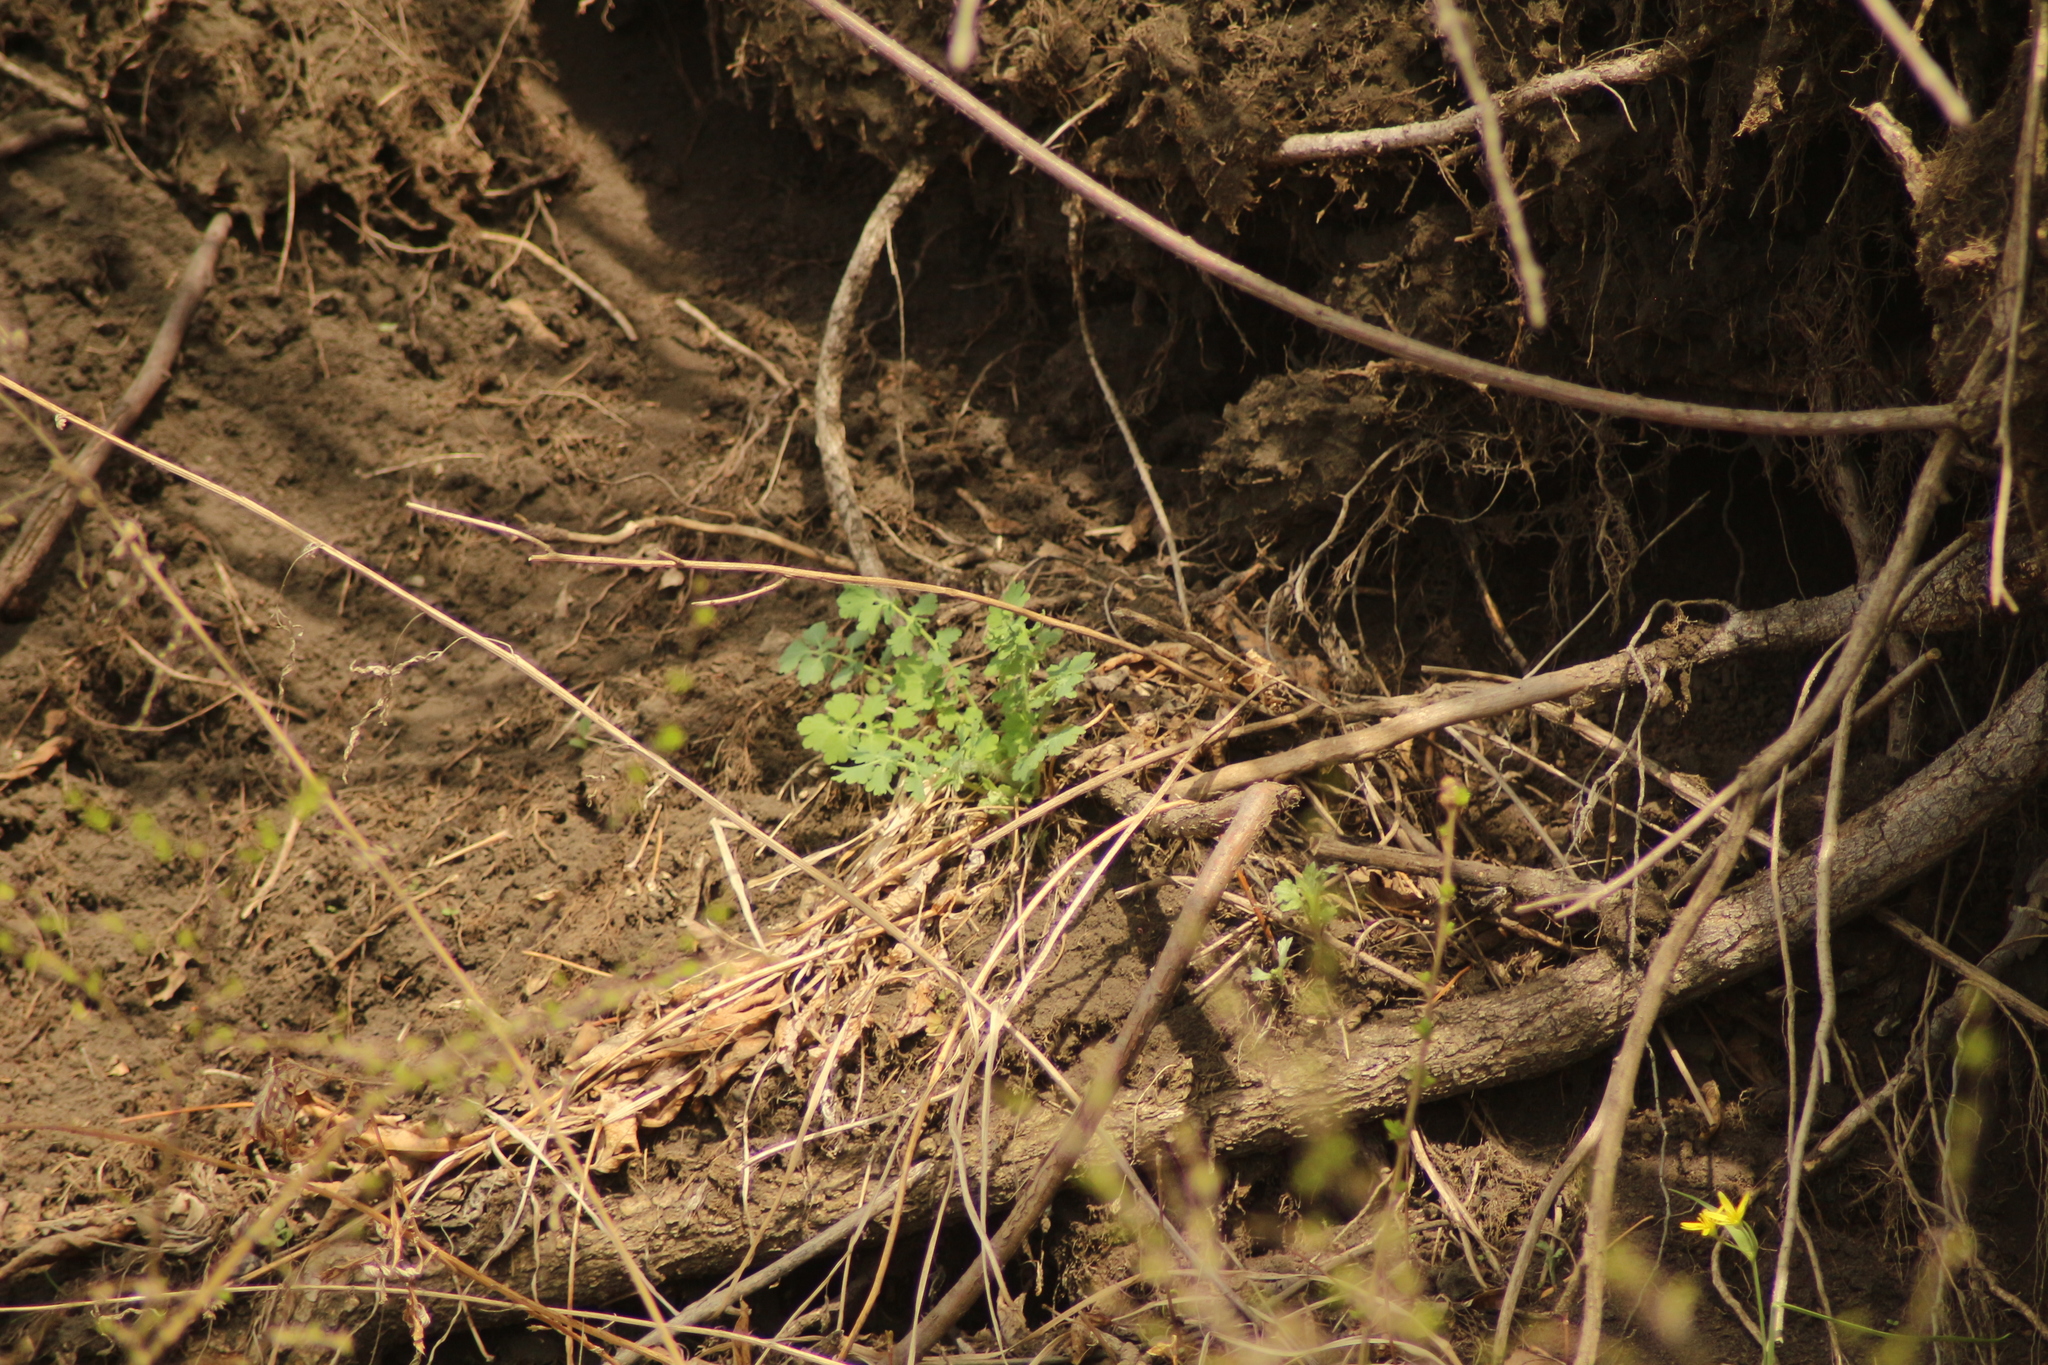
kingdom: Plantae
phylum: Tracheophyta
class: Magnoliopsida
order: Ranunculales
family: Papaveraceae
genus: Chelidonium
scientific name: Chelidonium majus
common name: Greater celandine
